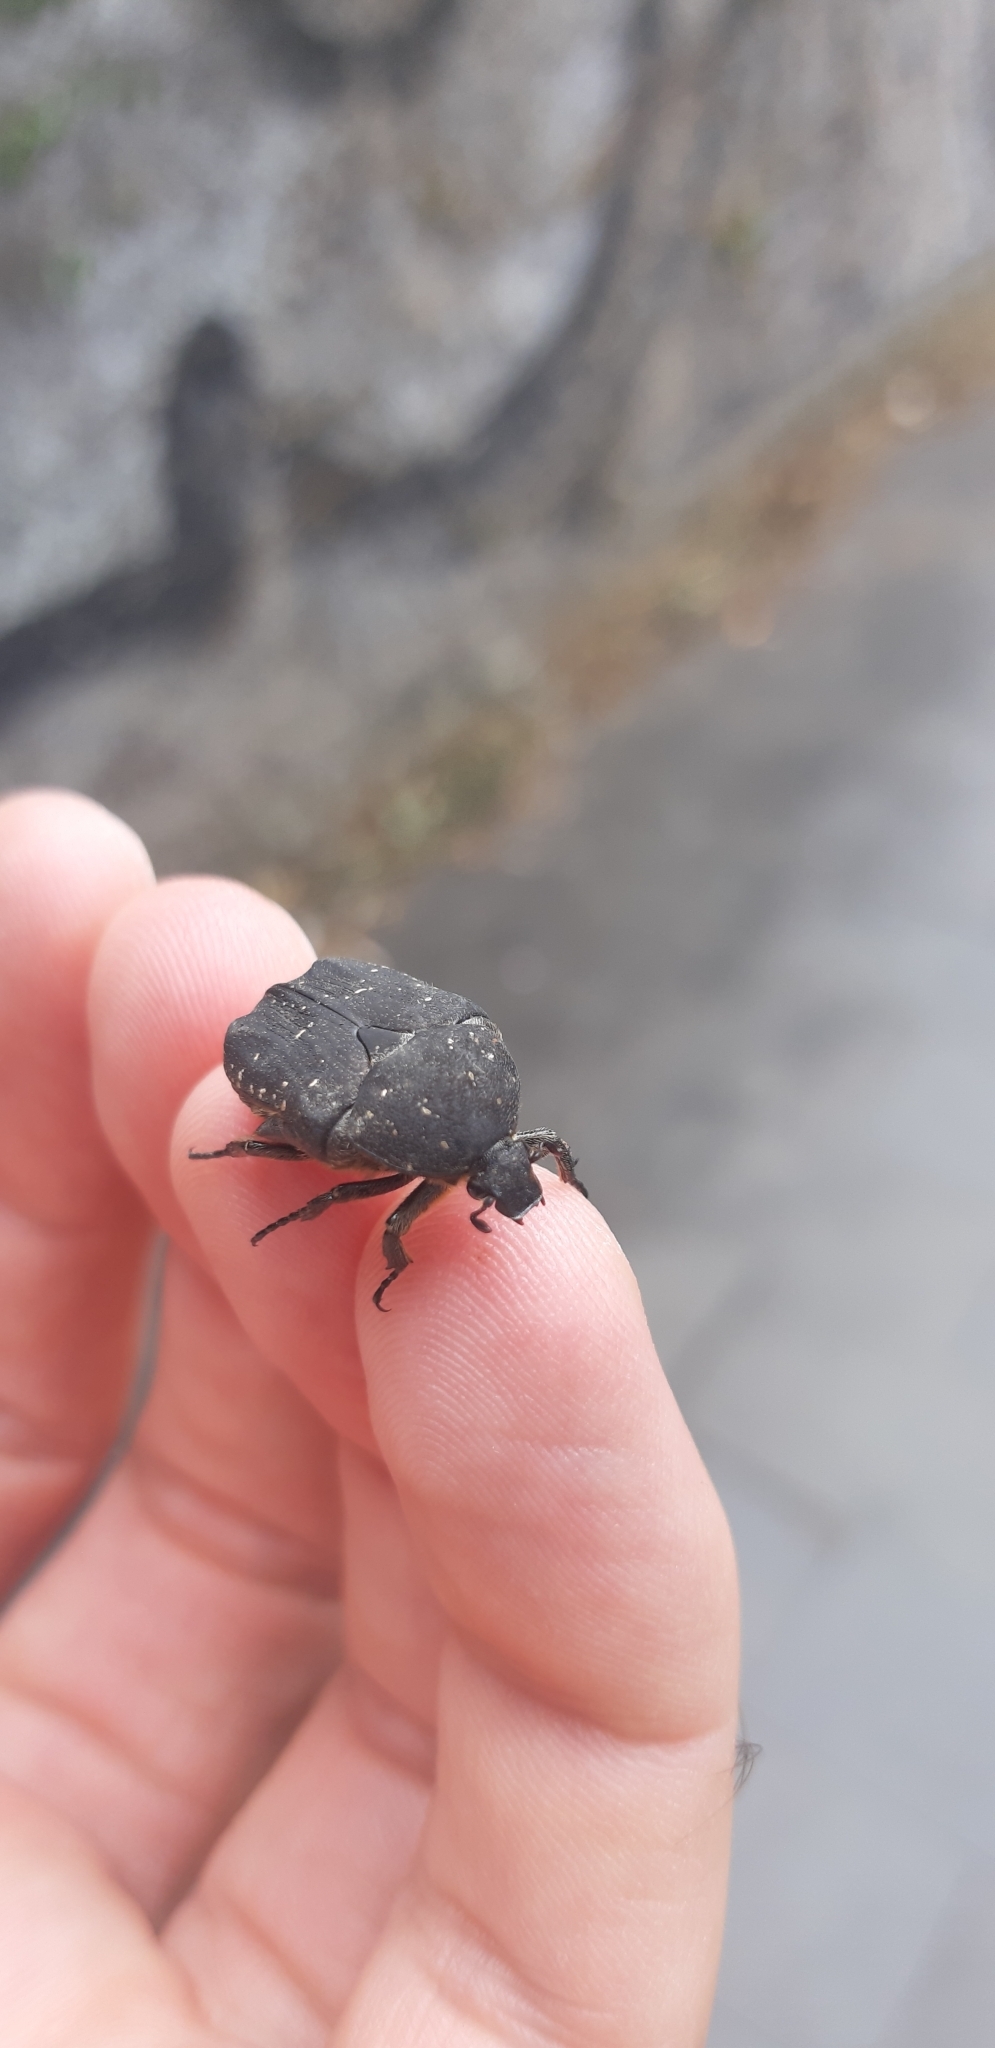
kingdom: Animalia
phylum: Arthropoda
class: Insecta
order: Coleoptera
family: Scarabaeidae
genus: Protaetia
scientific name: Protaetia morio
